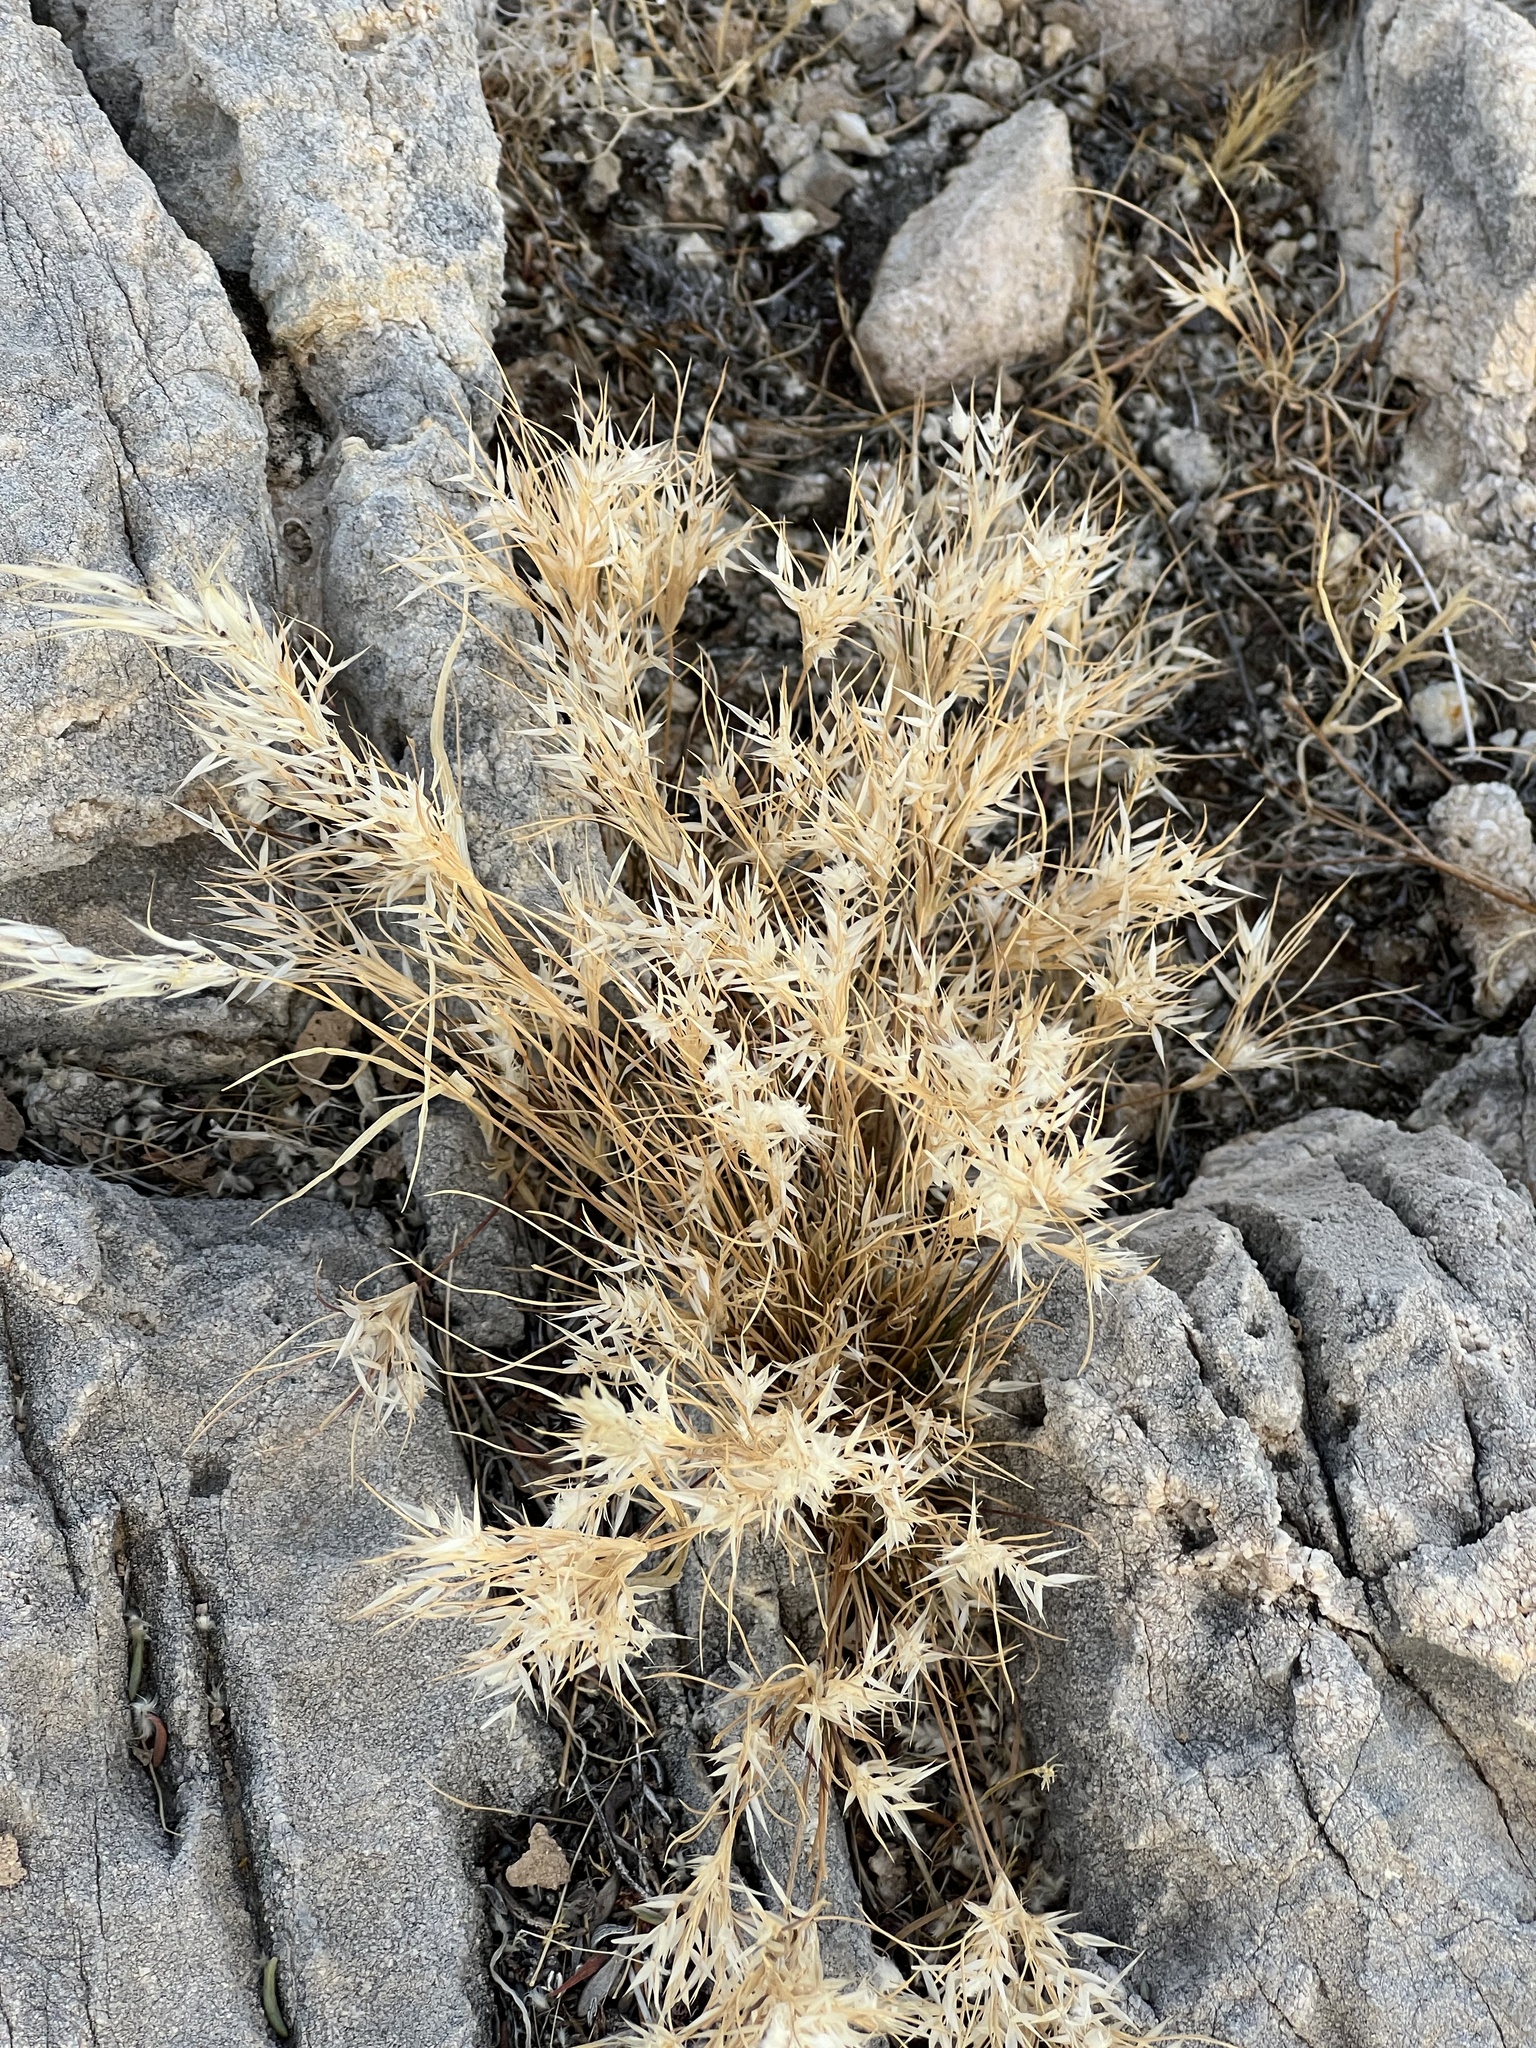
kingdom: Plantae
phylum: Tracheophyta
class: Liliopsida
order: Poales
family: Poaceae
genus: Dasyochloa
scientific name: Dasyochloa pulchella
